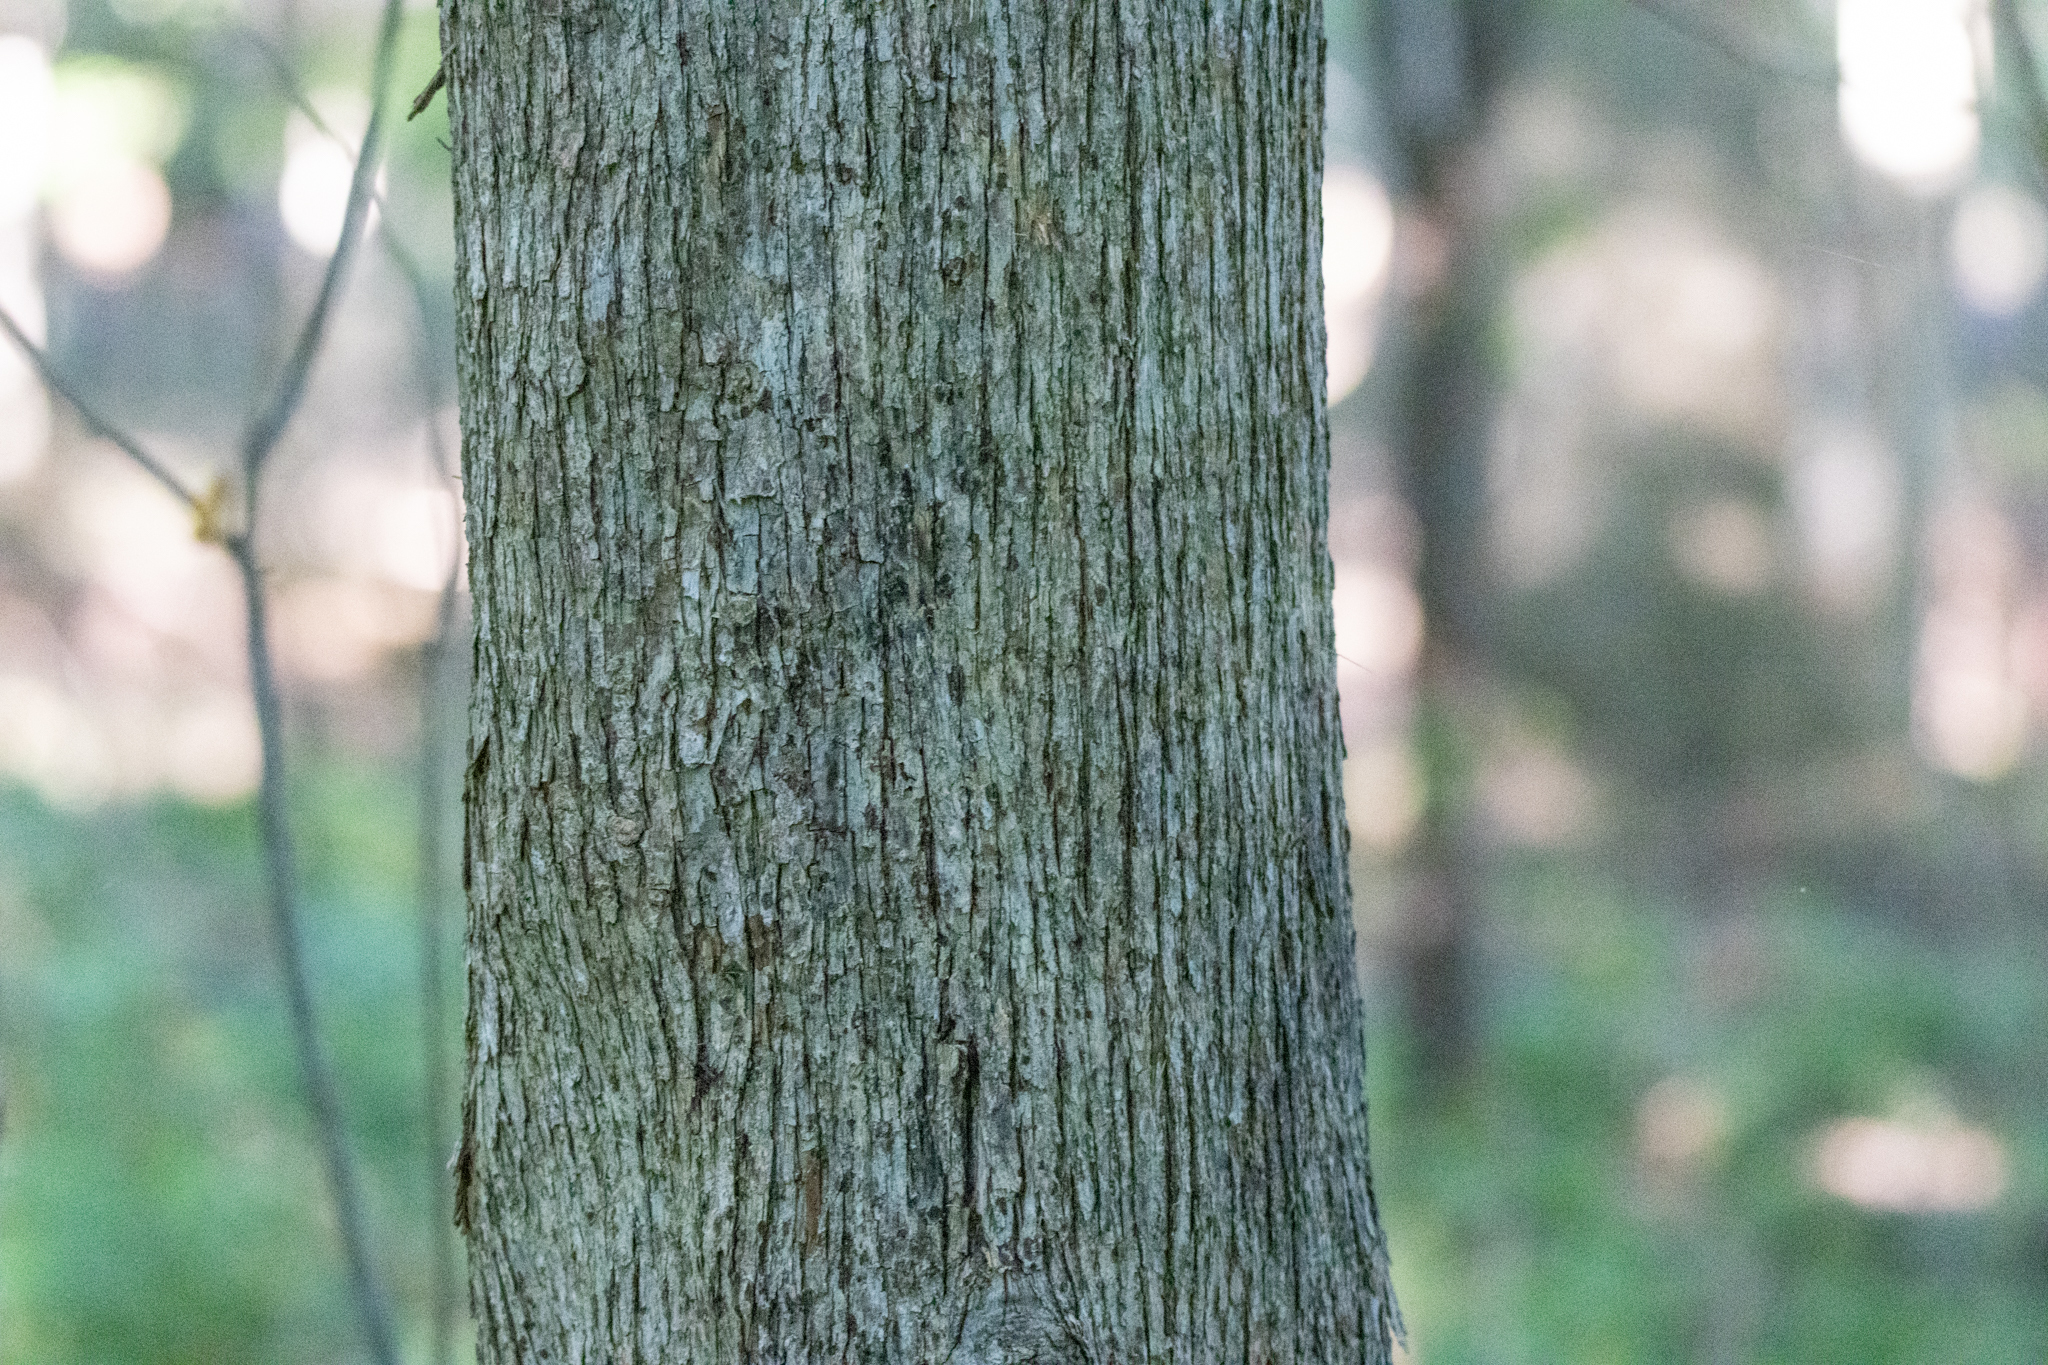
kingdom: Plantae
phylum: Tracheophyta
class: Magnoliopsida
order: Fagales
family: Betulaceae
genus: Ostrya
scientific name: Ostrya virginiana
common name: Ironwood
